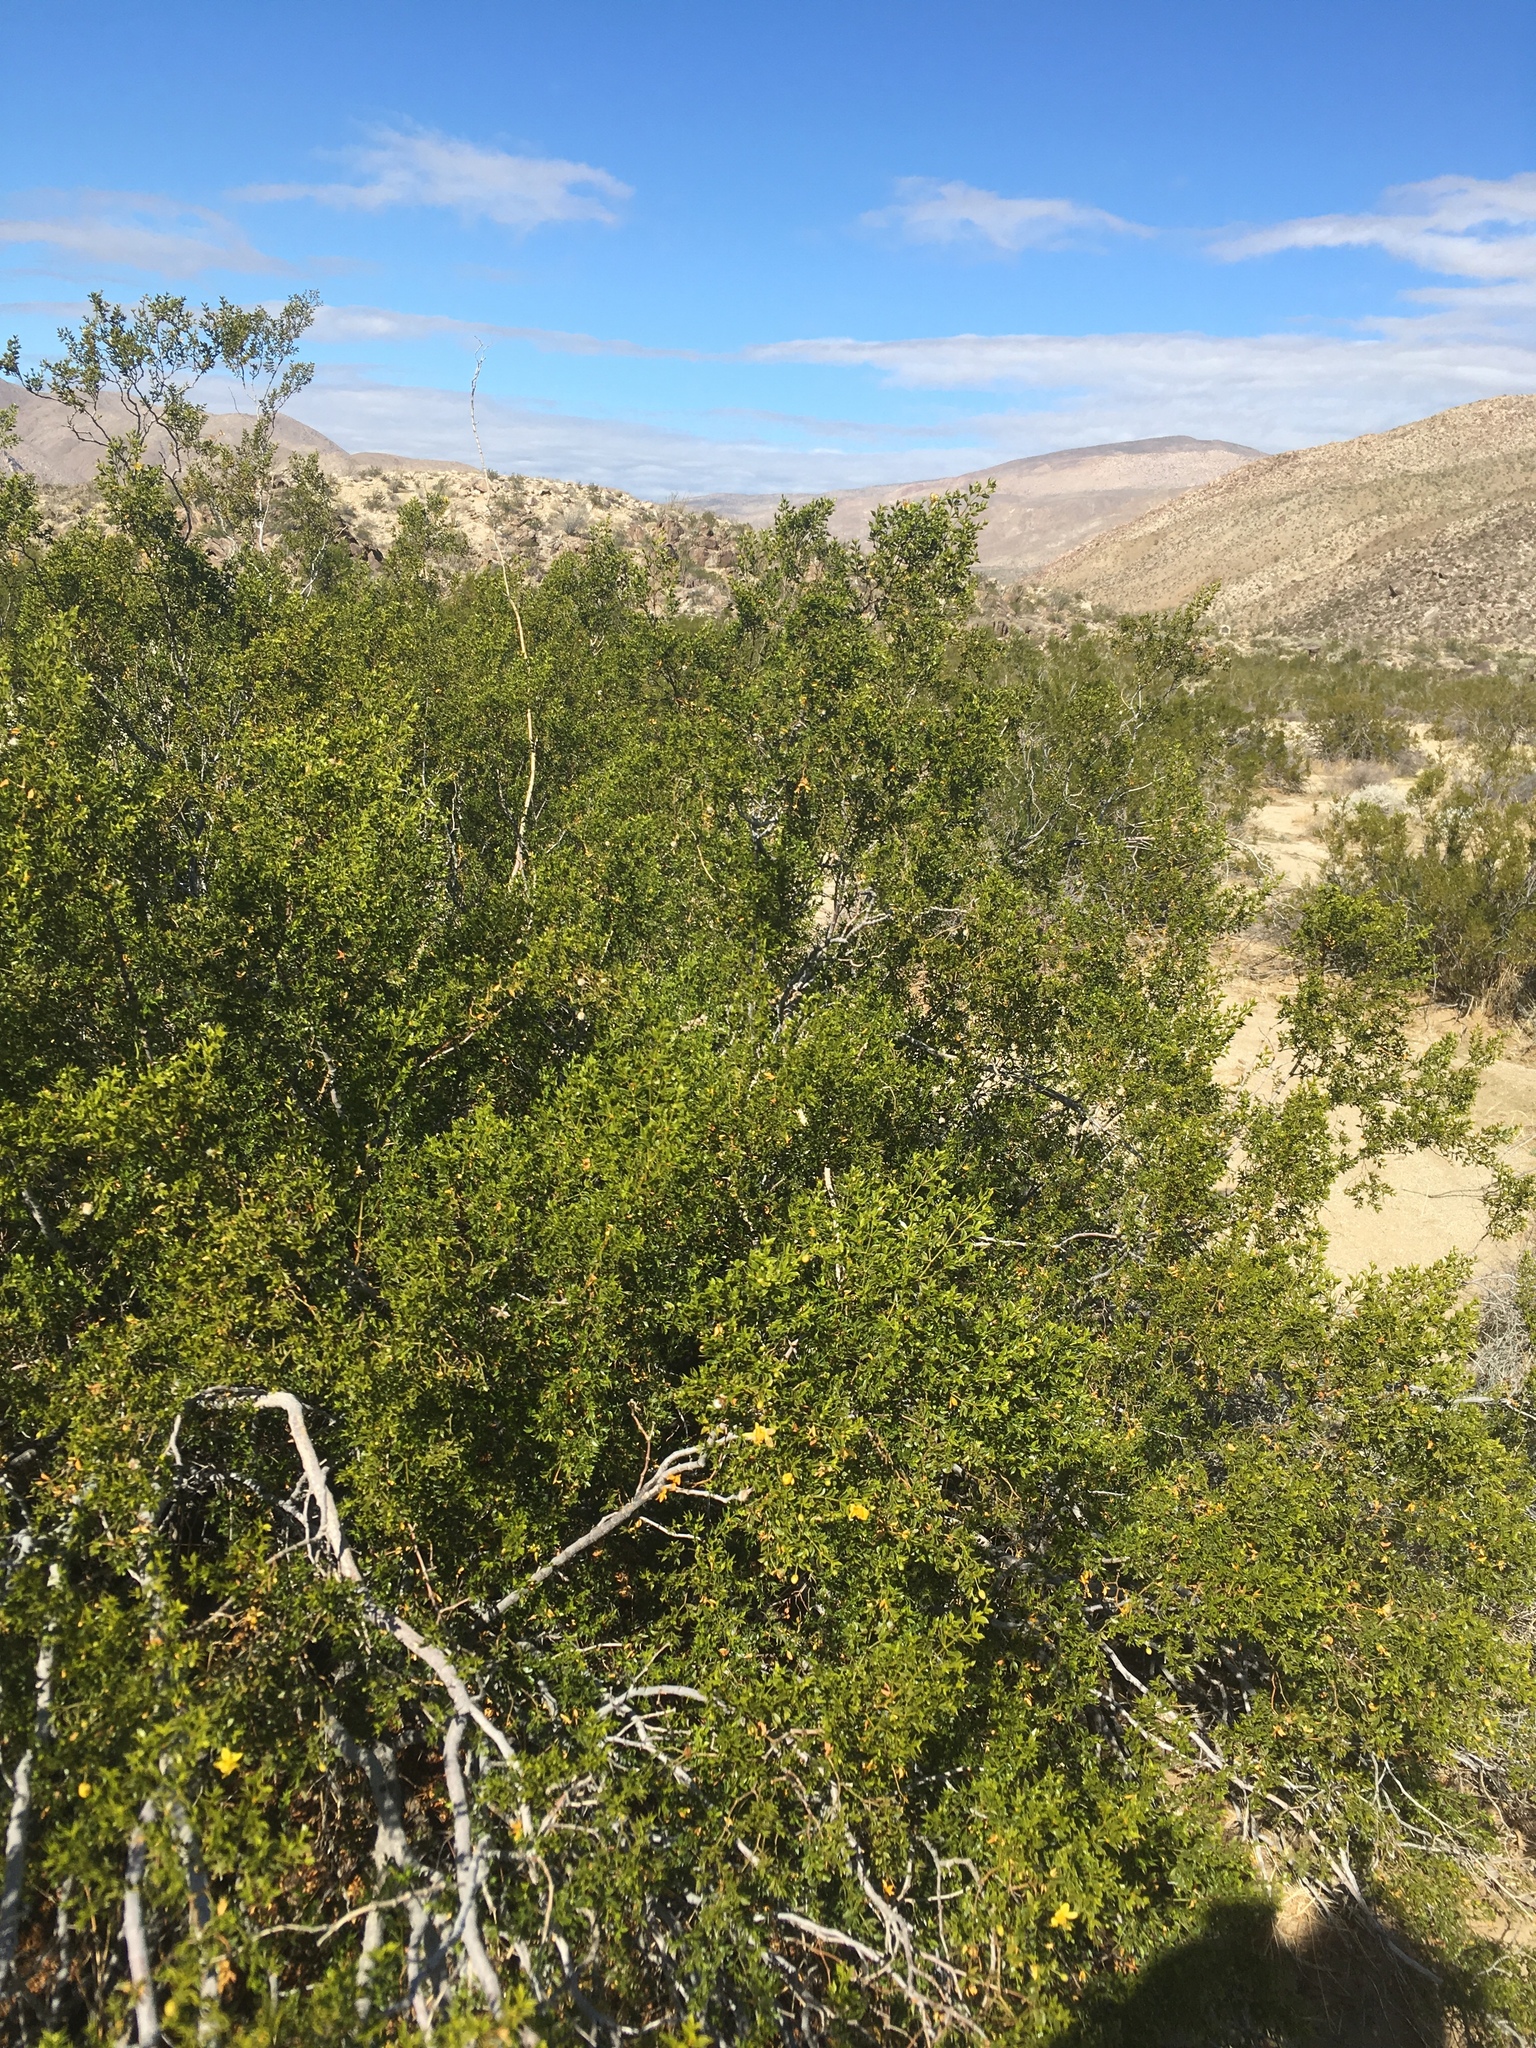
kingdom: Plantae
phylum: Tracheophyta
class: Magnoliopsida
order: Zygophyllales
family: Zygophyllaceae
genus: Larrea
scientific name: Larrea tridentata
